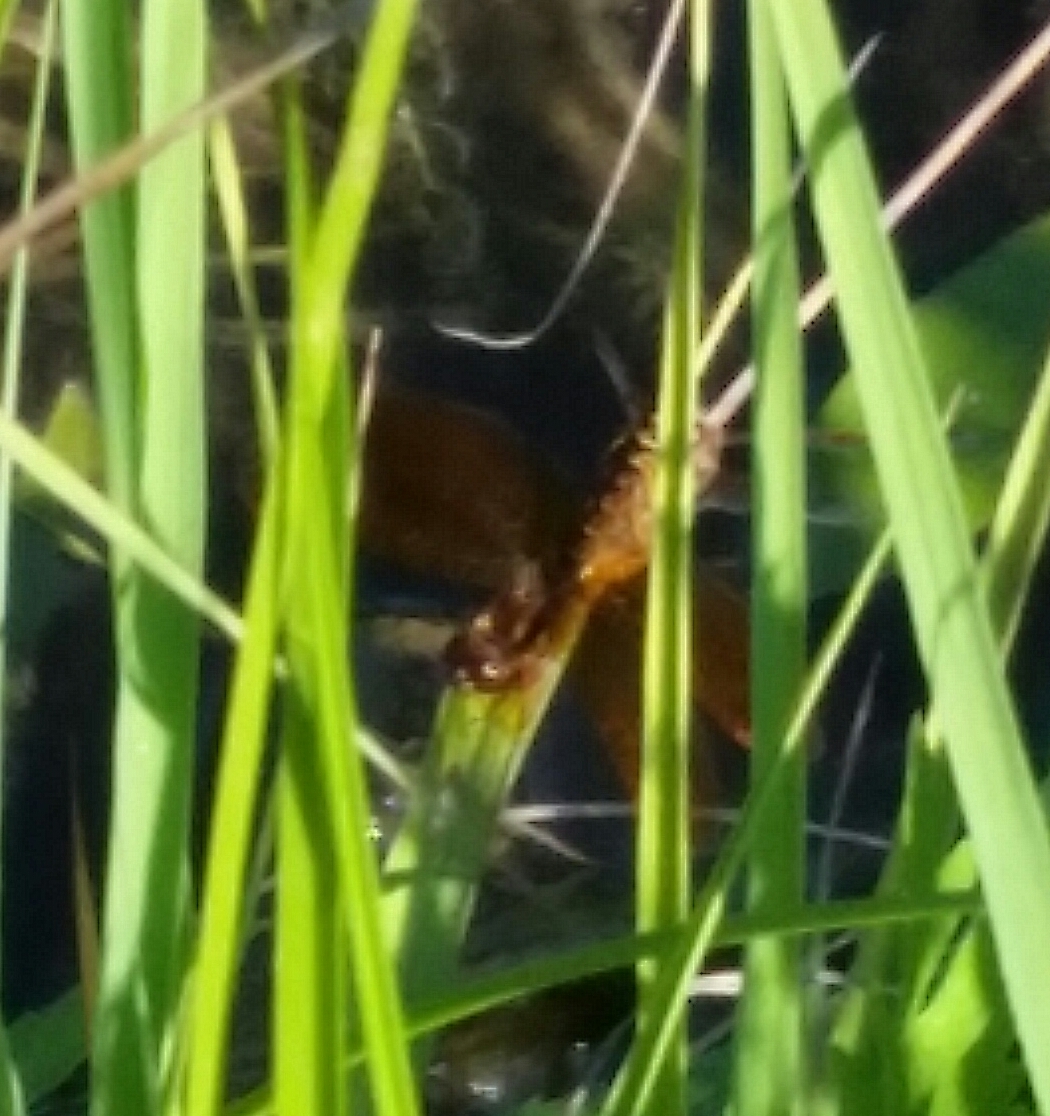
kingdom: Animalia
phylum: Arthropoda
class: Insecta
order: Odonata
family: Libellulidae
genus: Perithemis
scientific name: Perithemis tenera
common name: Eastern amberwing
